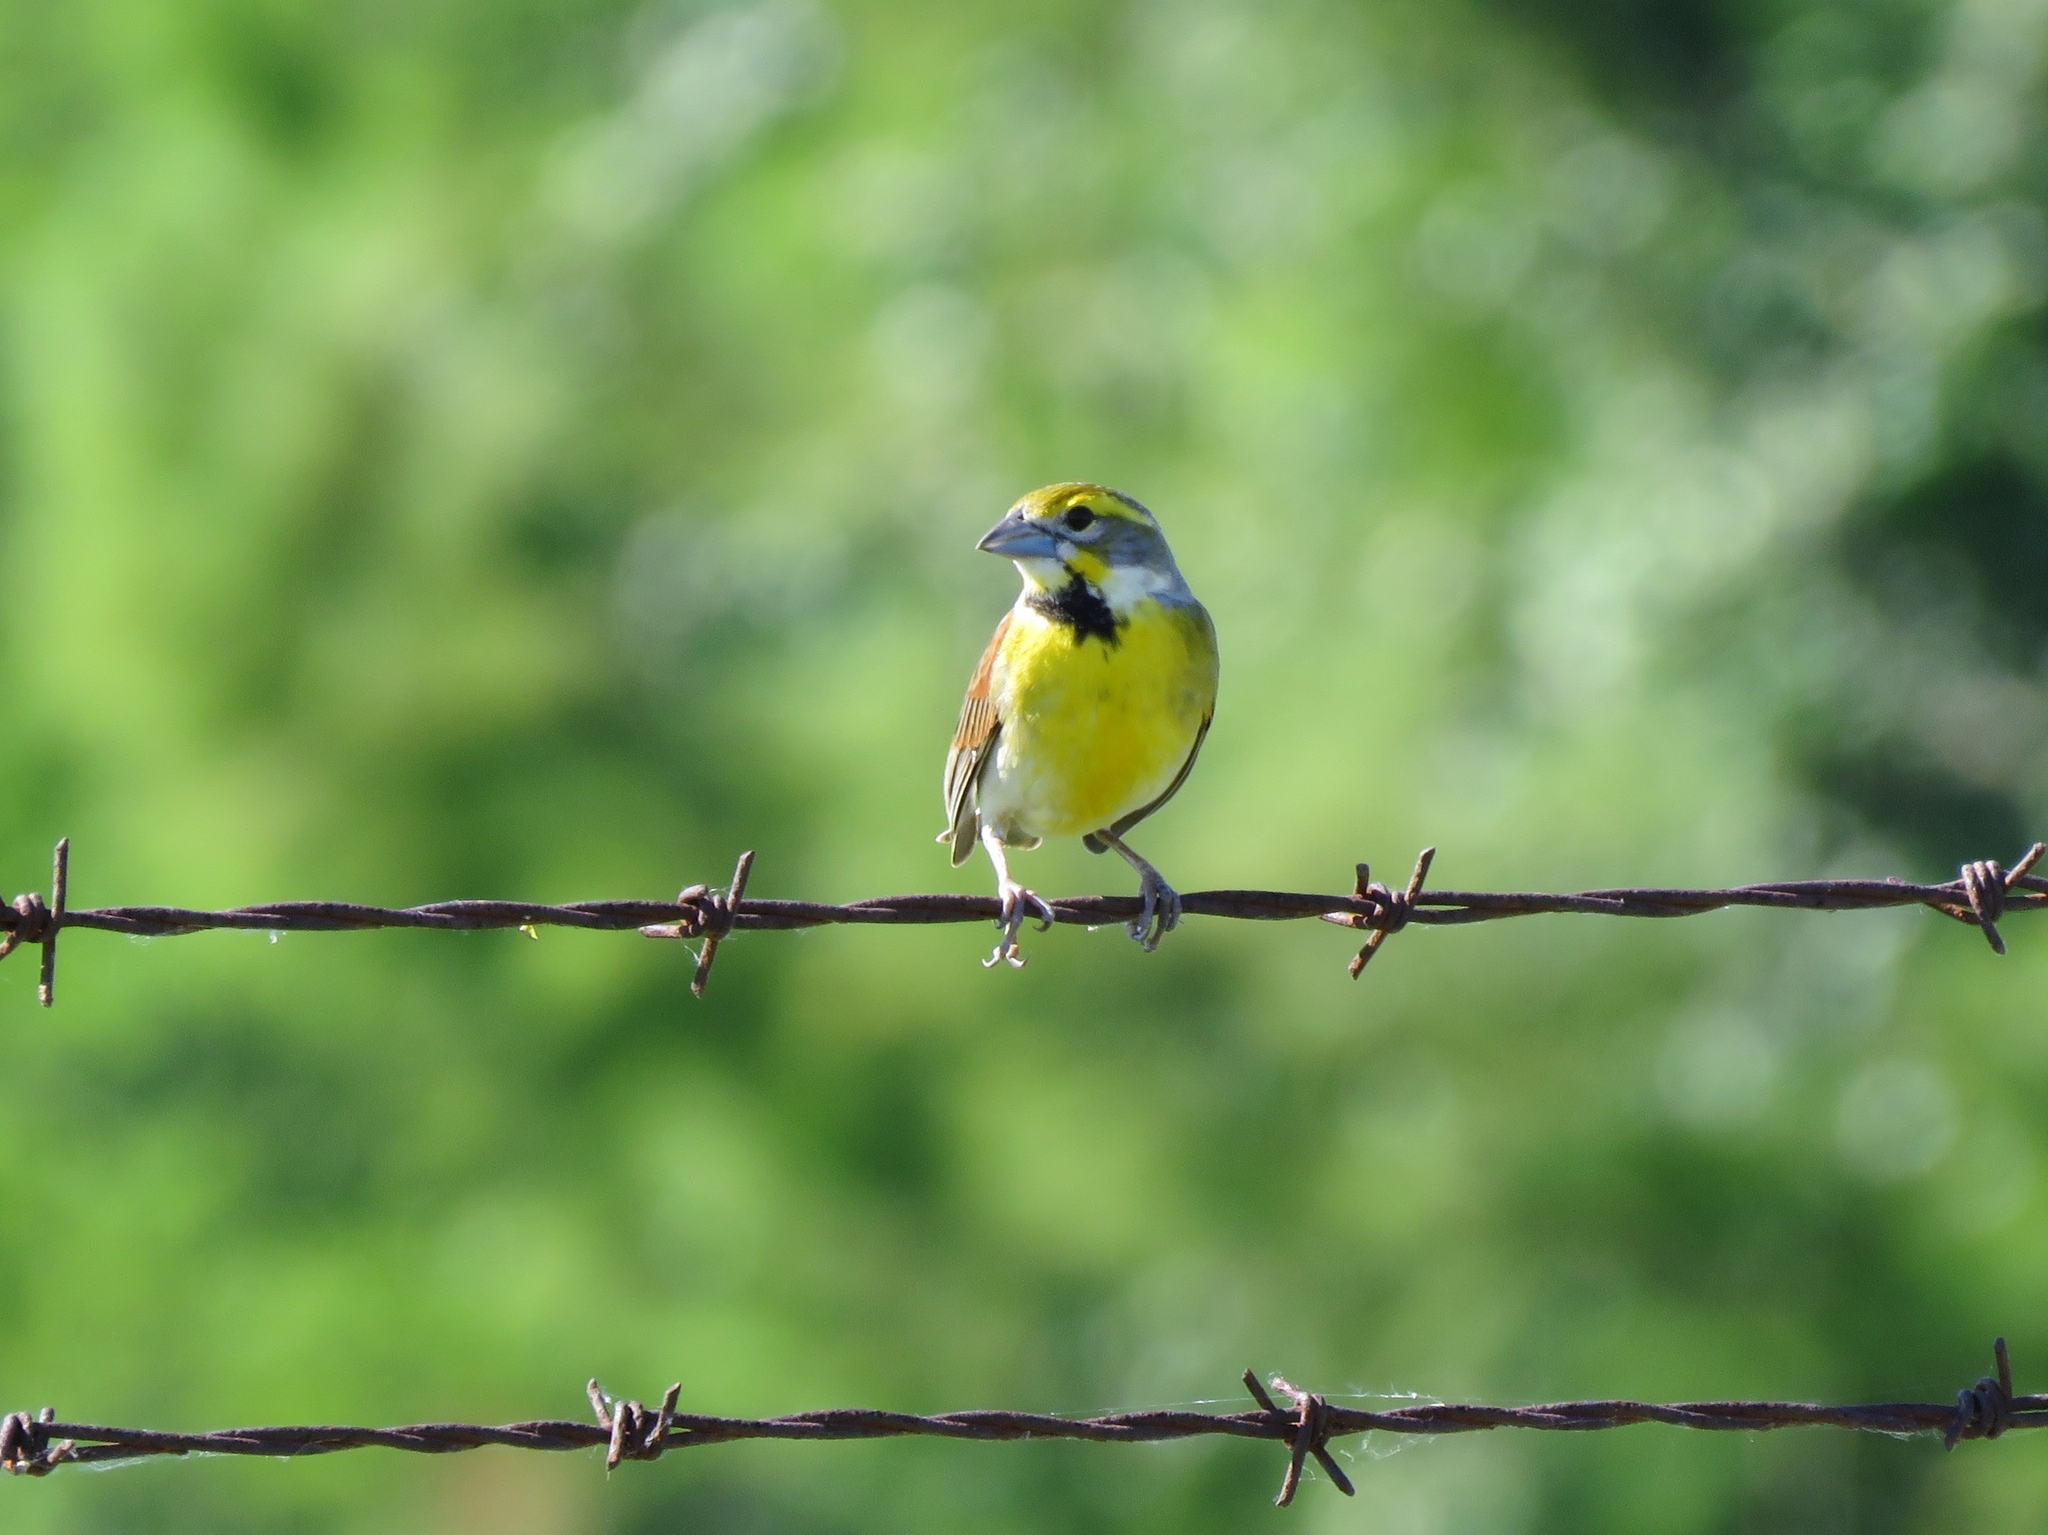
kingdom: Animalia
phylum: Chordata
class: Aves
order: Passeriformes
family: Cardinalidae
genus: Spiza
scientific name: Spiza americana
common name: Dickcissel
